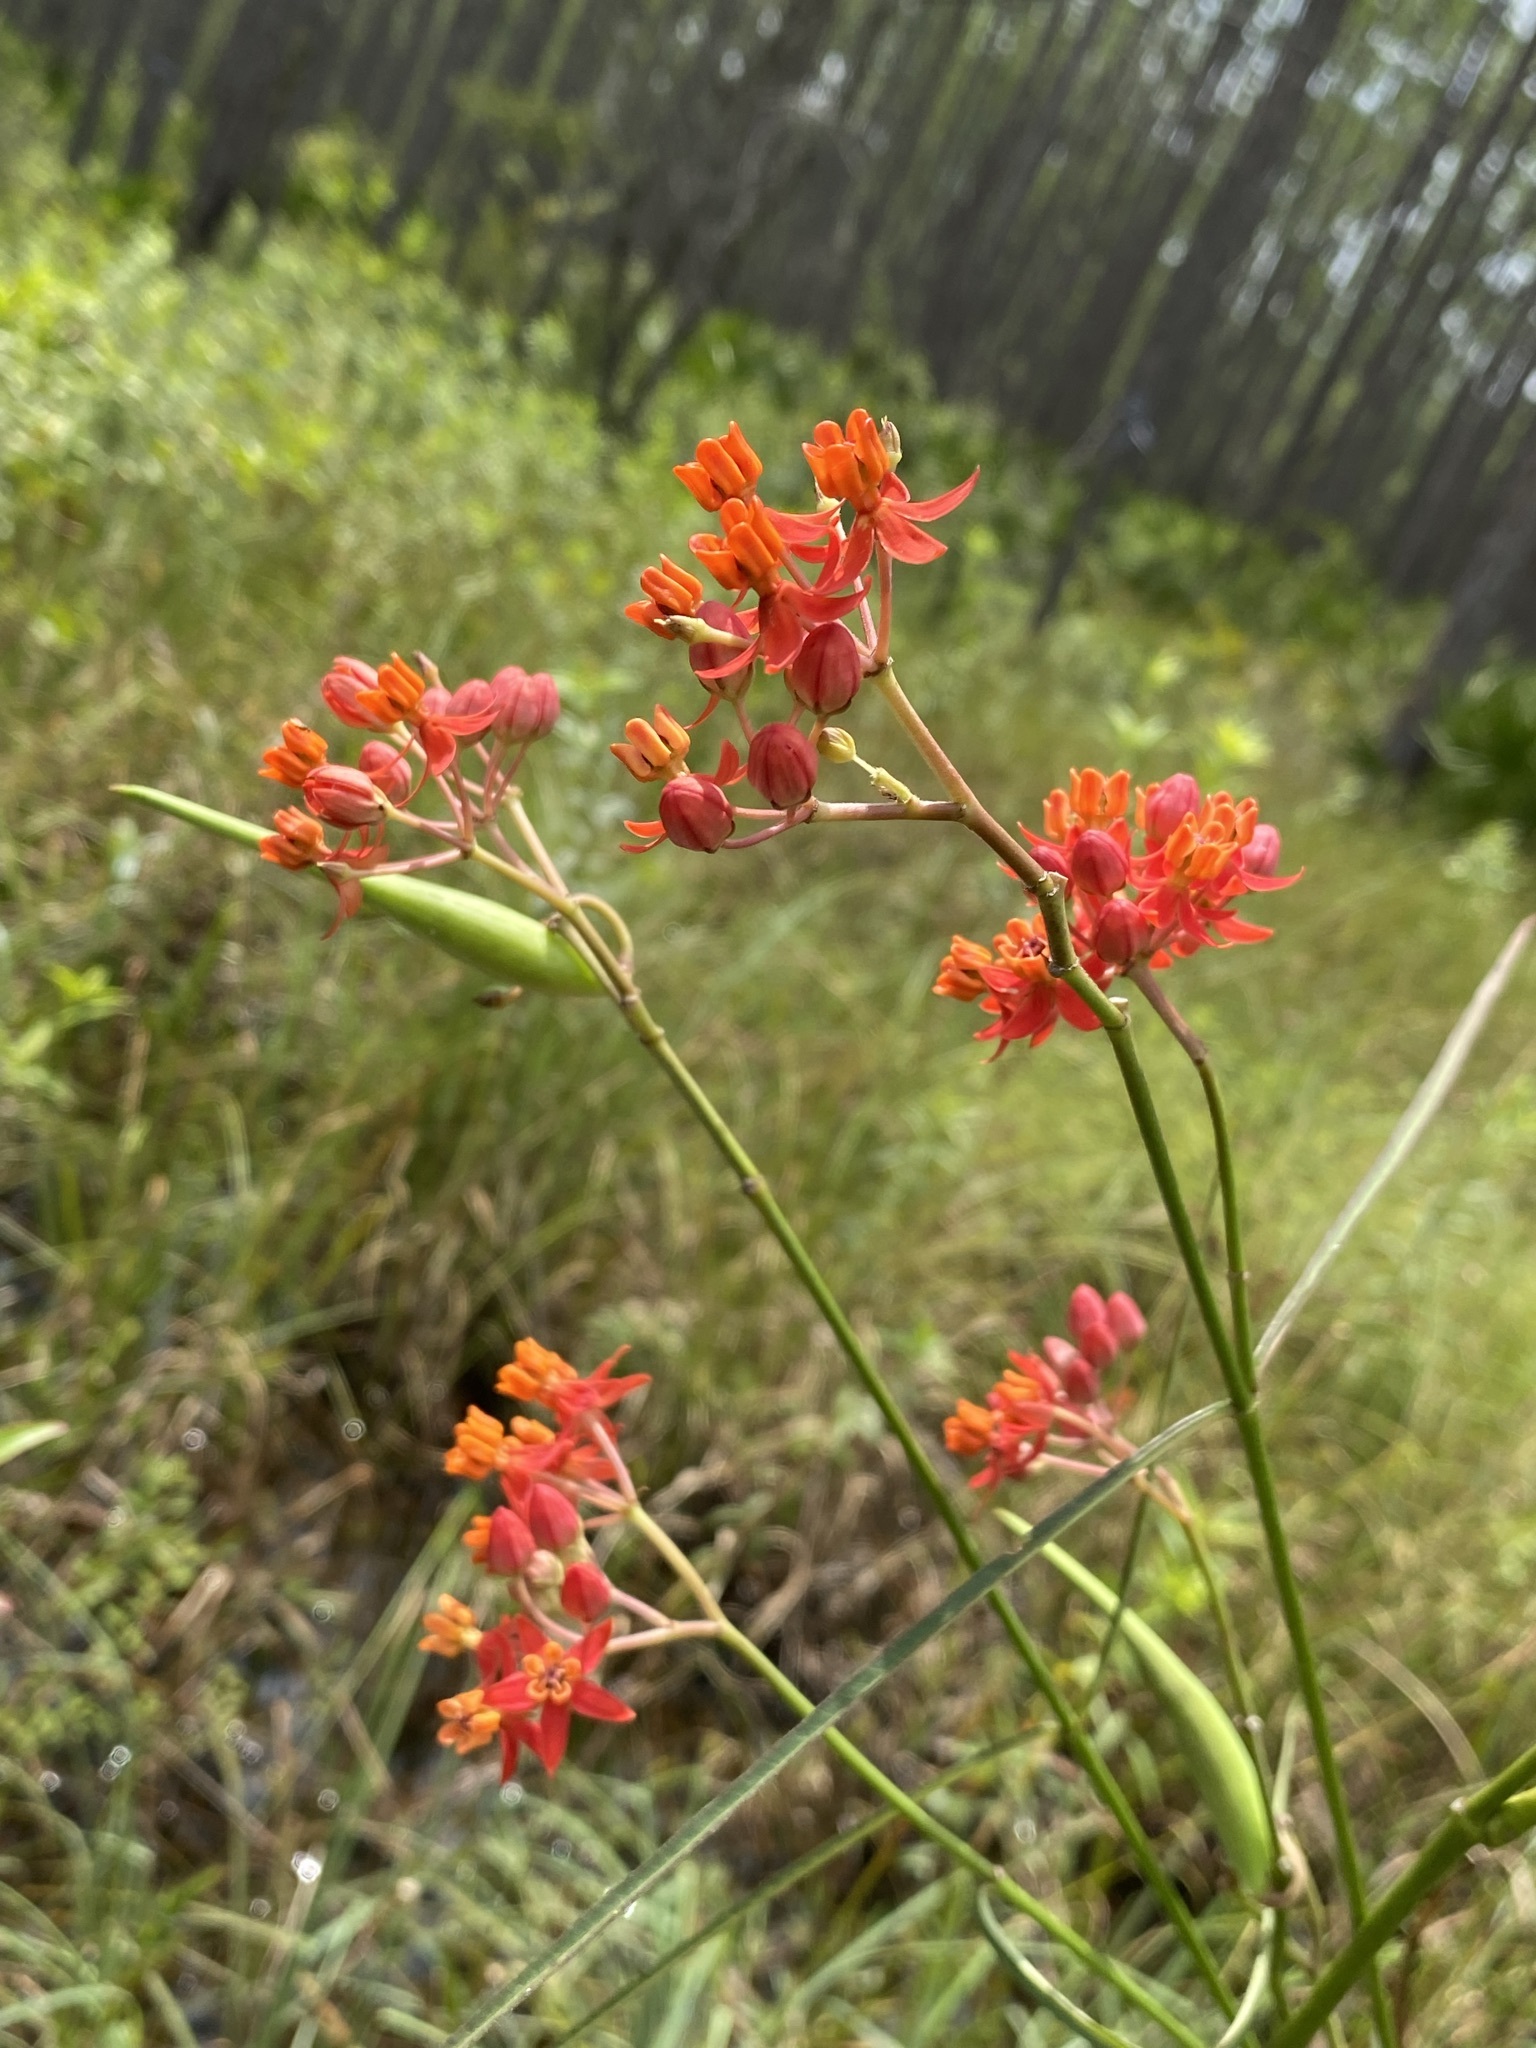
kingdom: Plantae
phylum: Tracheophyta
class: Magnoliopsida
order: Gentianales
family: Apocynaceae
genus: Asclepias
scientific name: Asclepias lanceolata
